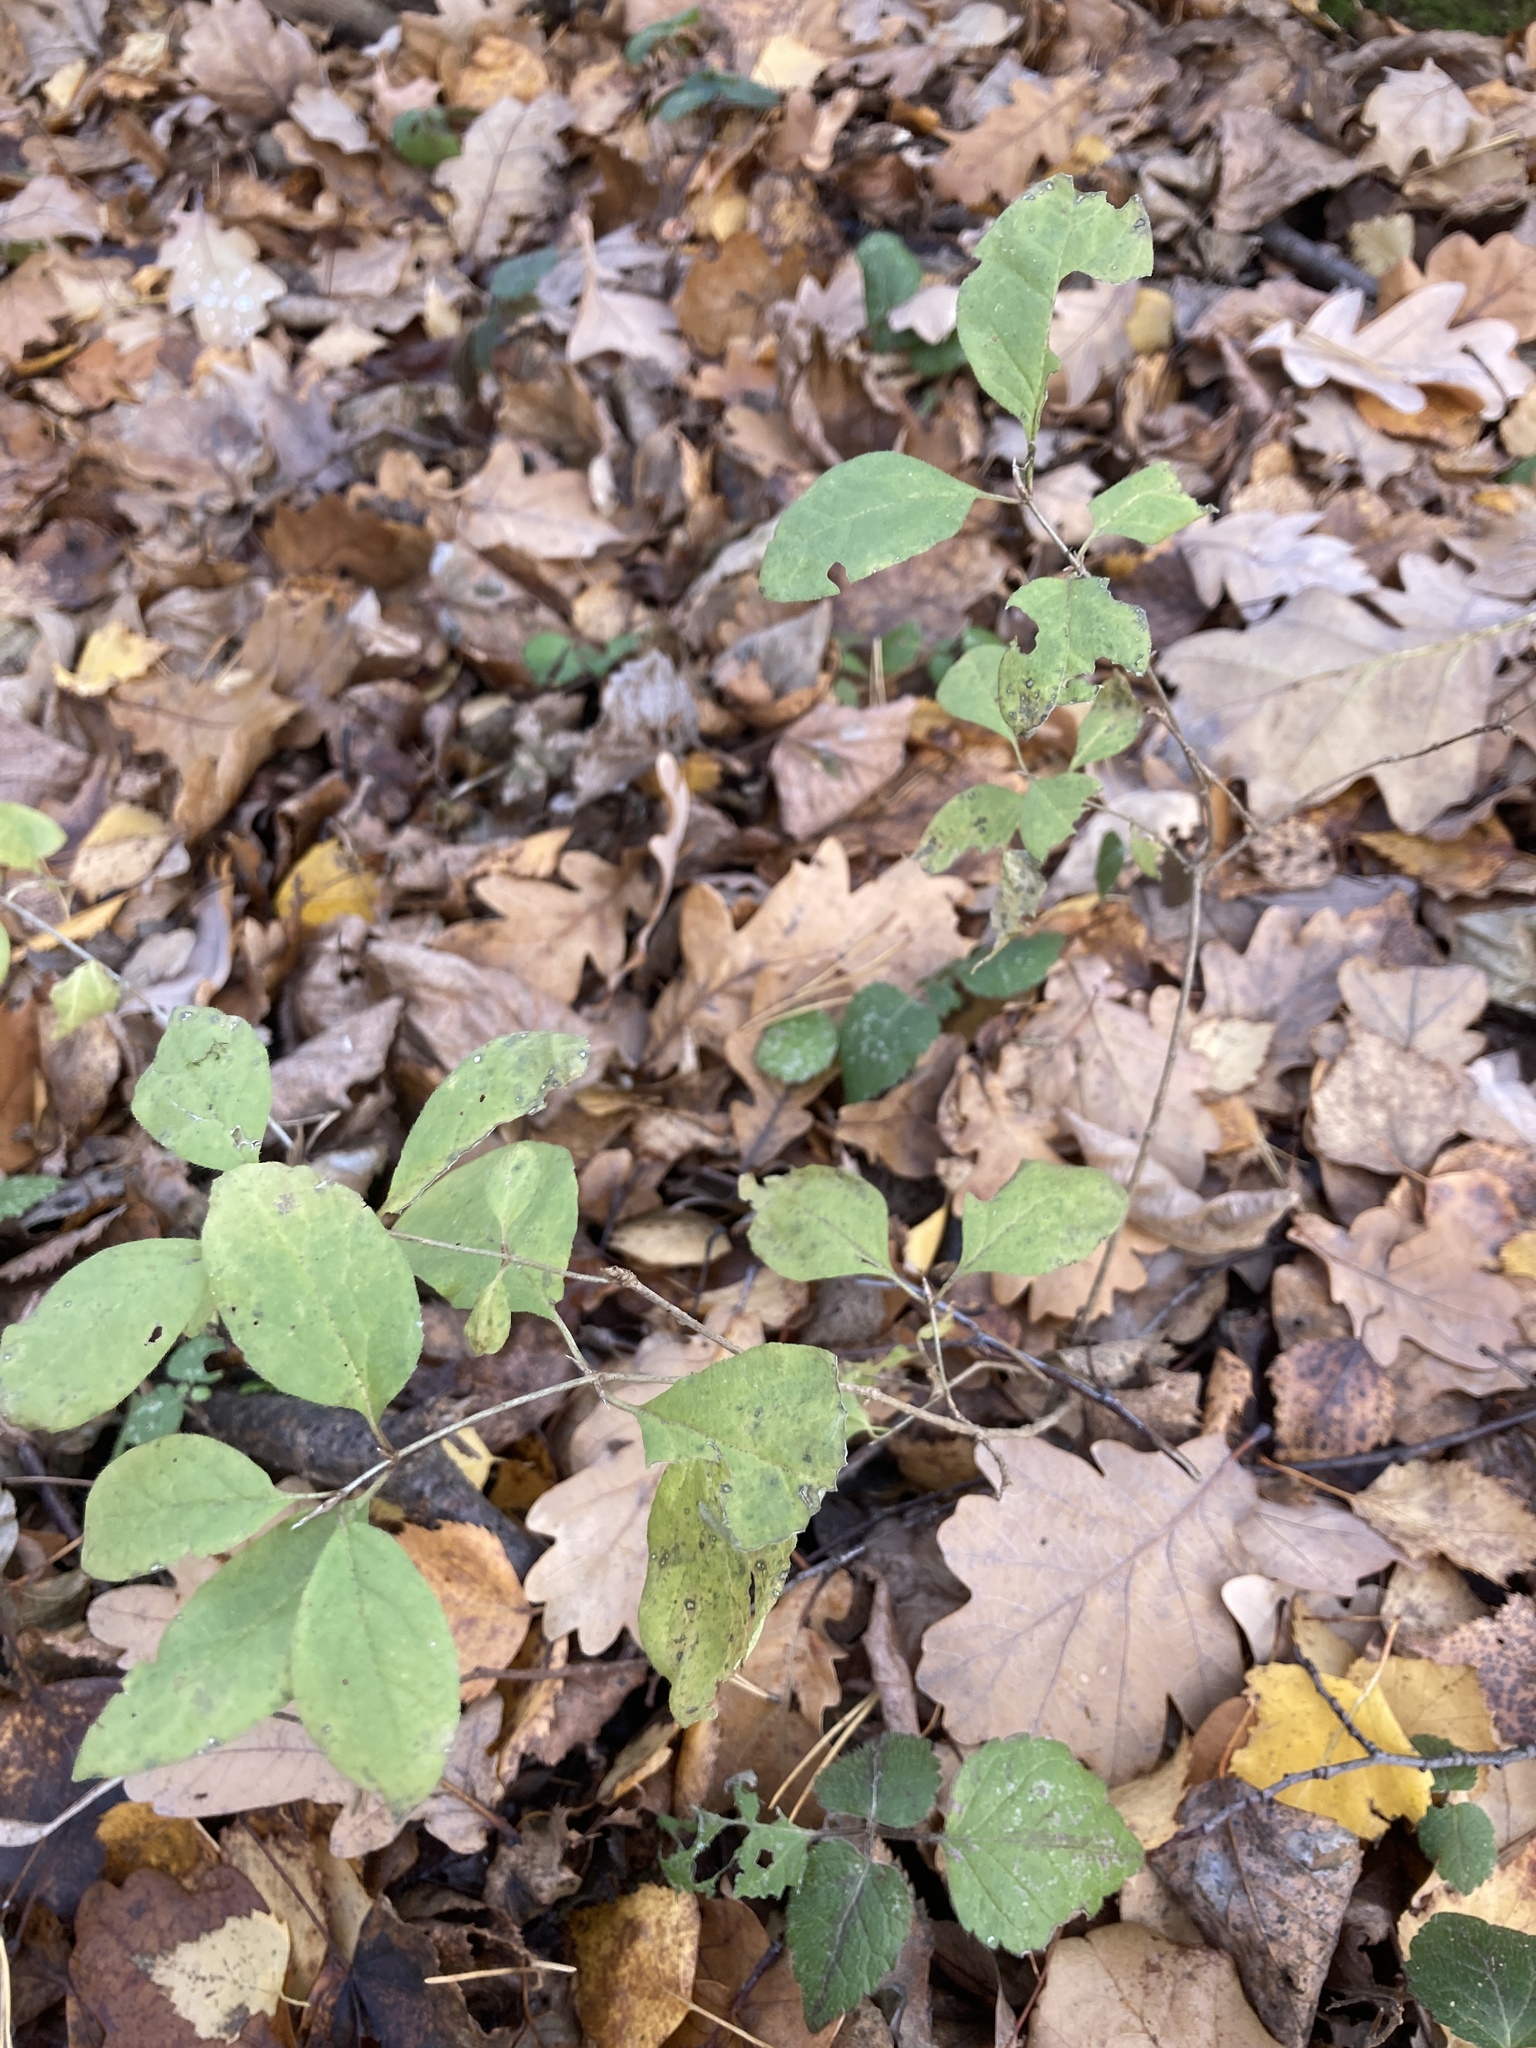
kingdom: Plantae
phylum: Tracheophyta
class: Magnoliopsida
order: Dipsacales
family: Caprifoliaceae
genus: Lonicera
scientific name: Lonicera xylosteum
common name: Fly honeysuckle
